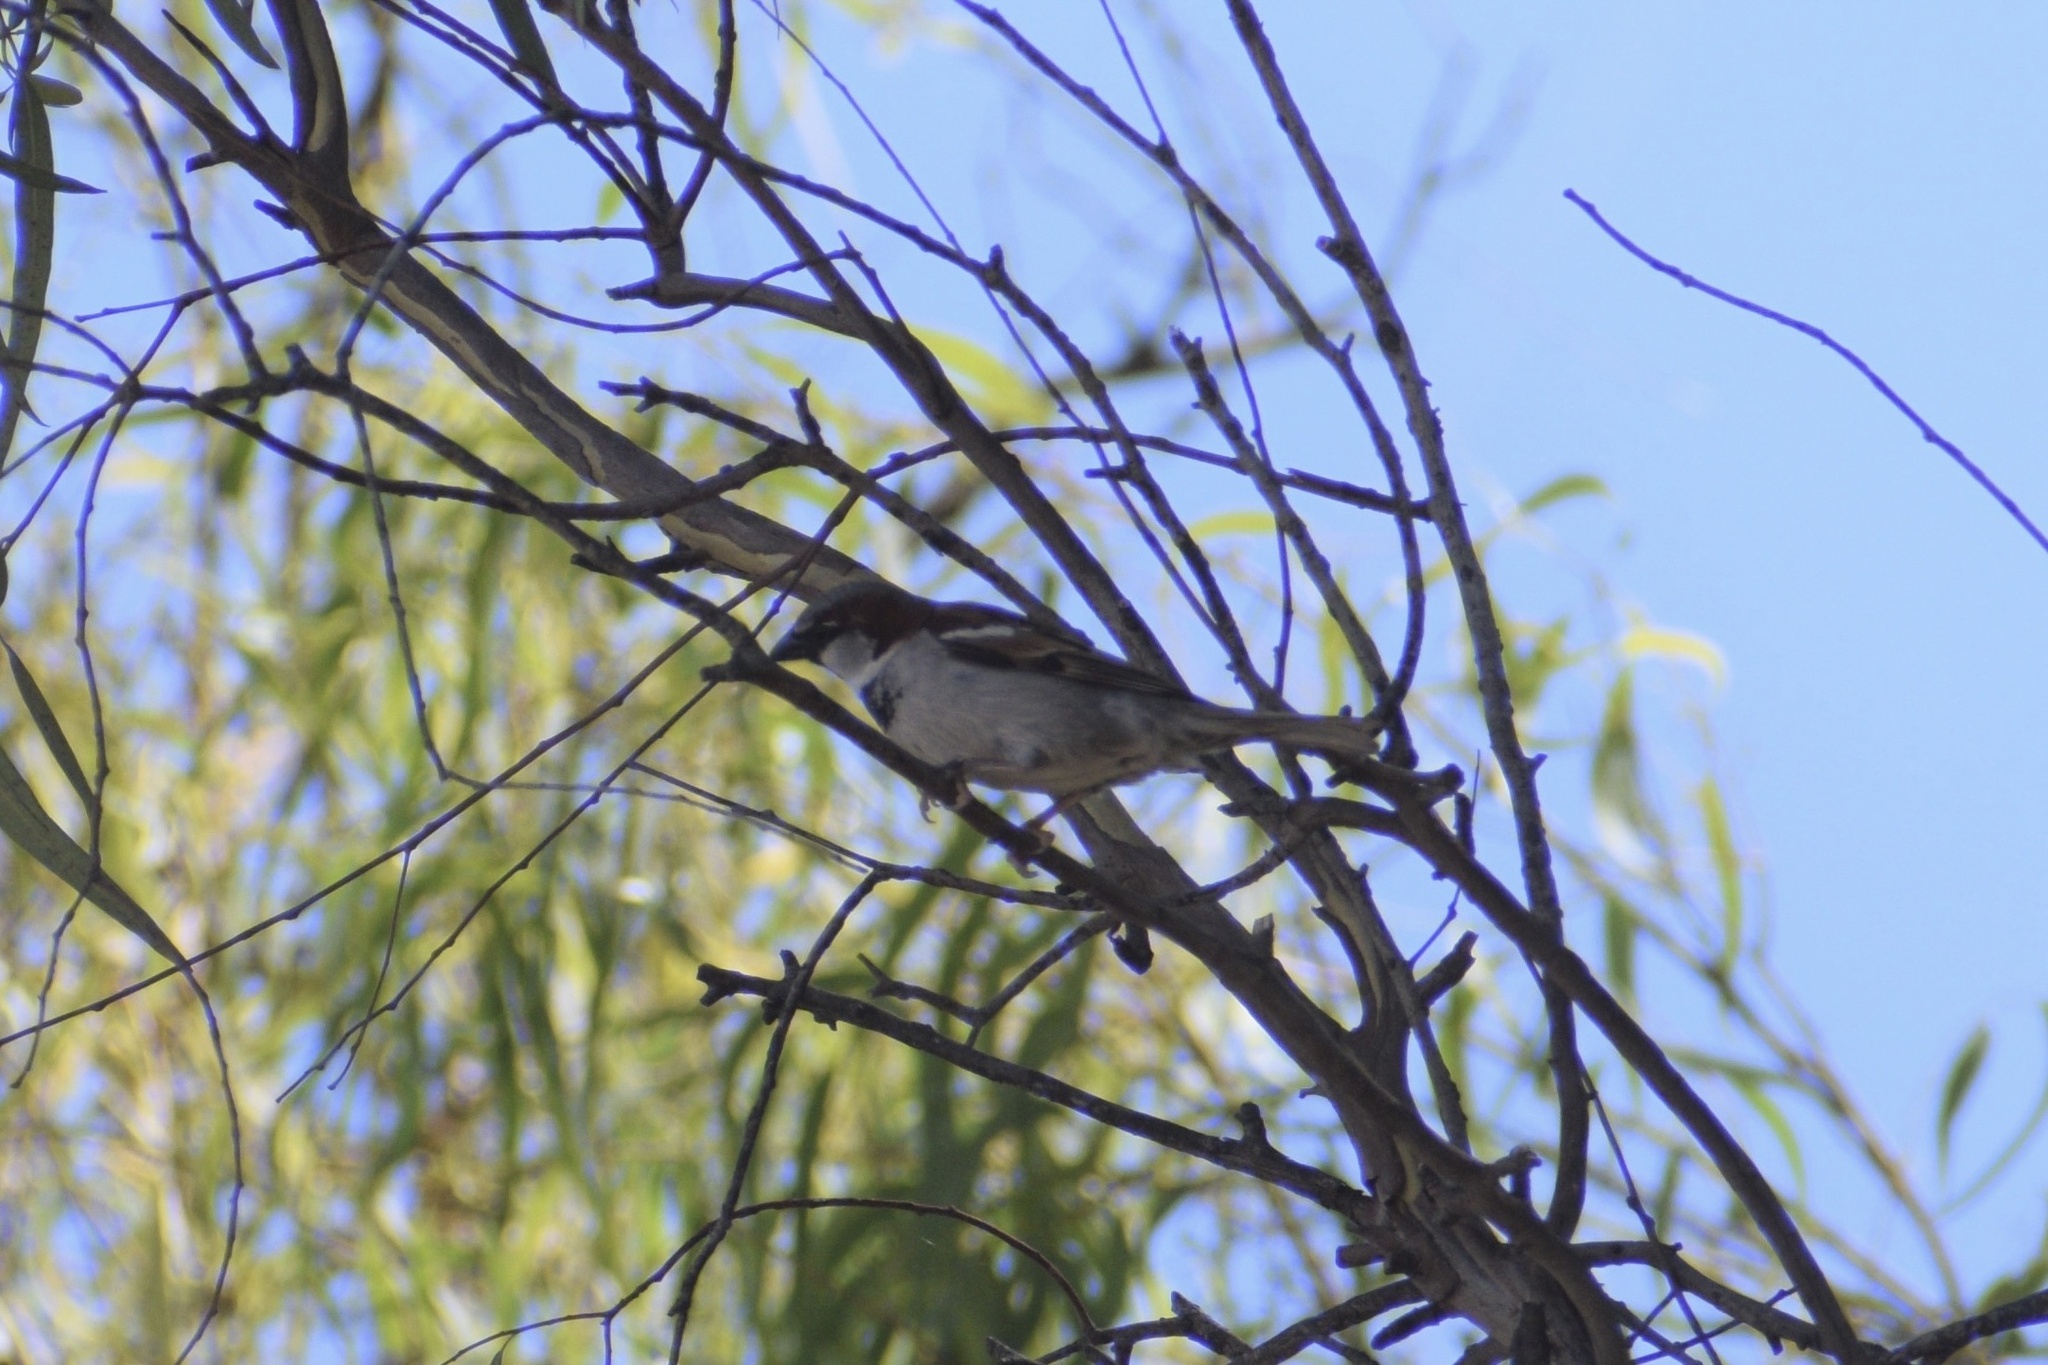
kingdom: Animalia
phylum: Chordata
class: Aves
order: Passeriformes
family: Passeridae
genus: Passer
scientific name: Passer domesticus
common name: House sparrow
